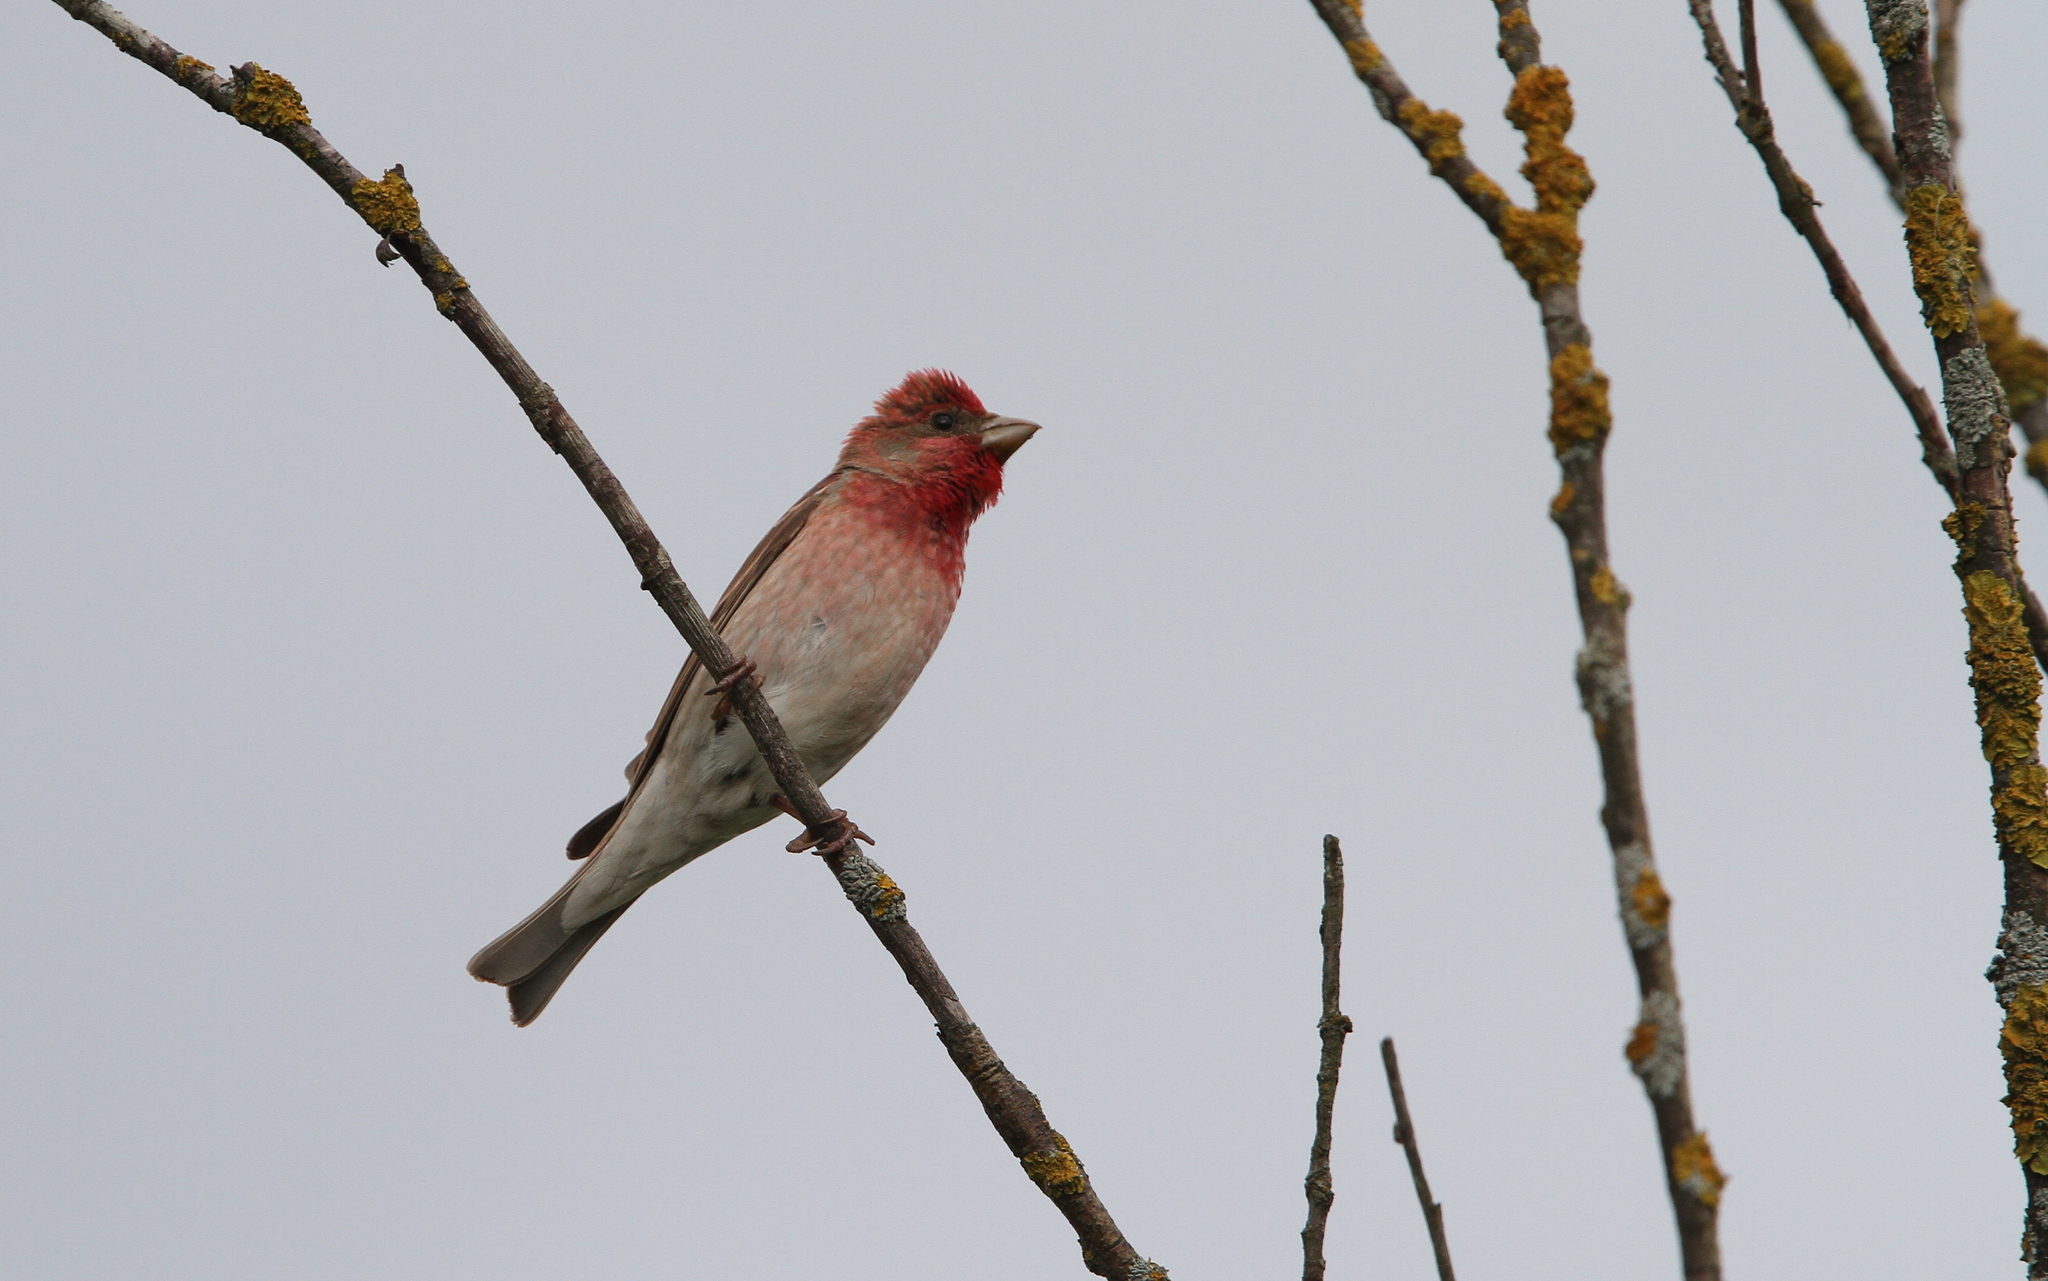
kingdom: Animalia
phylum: Chordata
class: Aves
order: Passeriformes
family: Fringillidae
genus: Carpodacus
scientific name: Carpodacus erythrinus
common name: Common rosefinch
